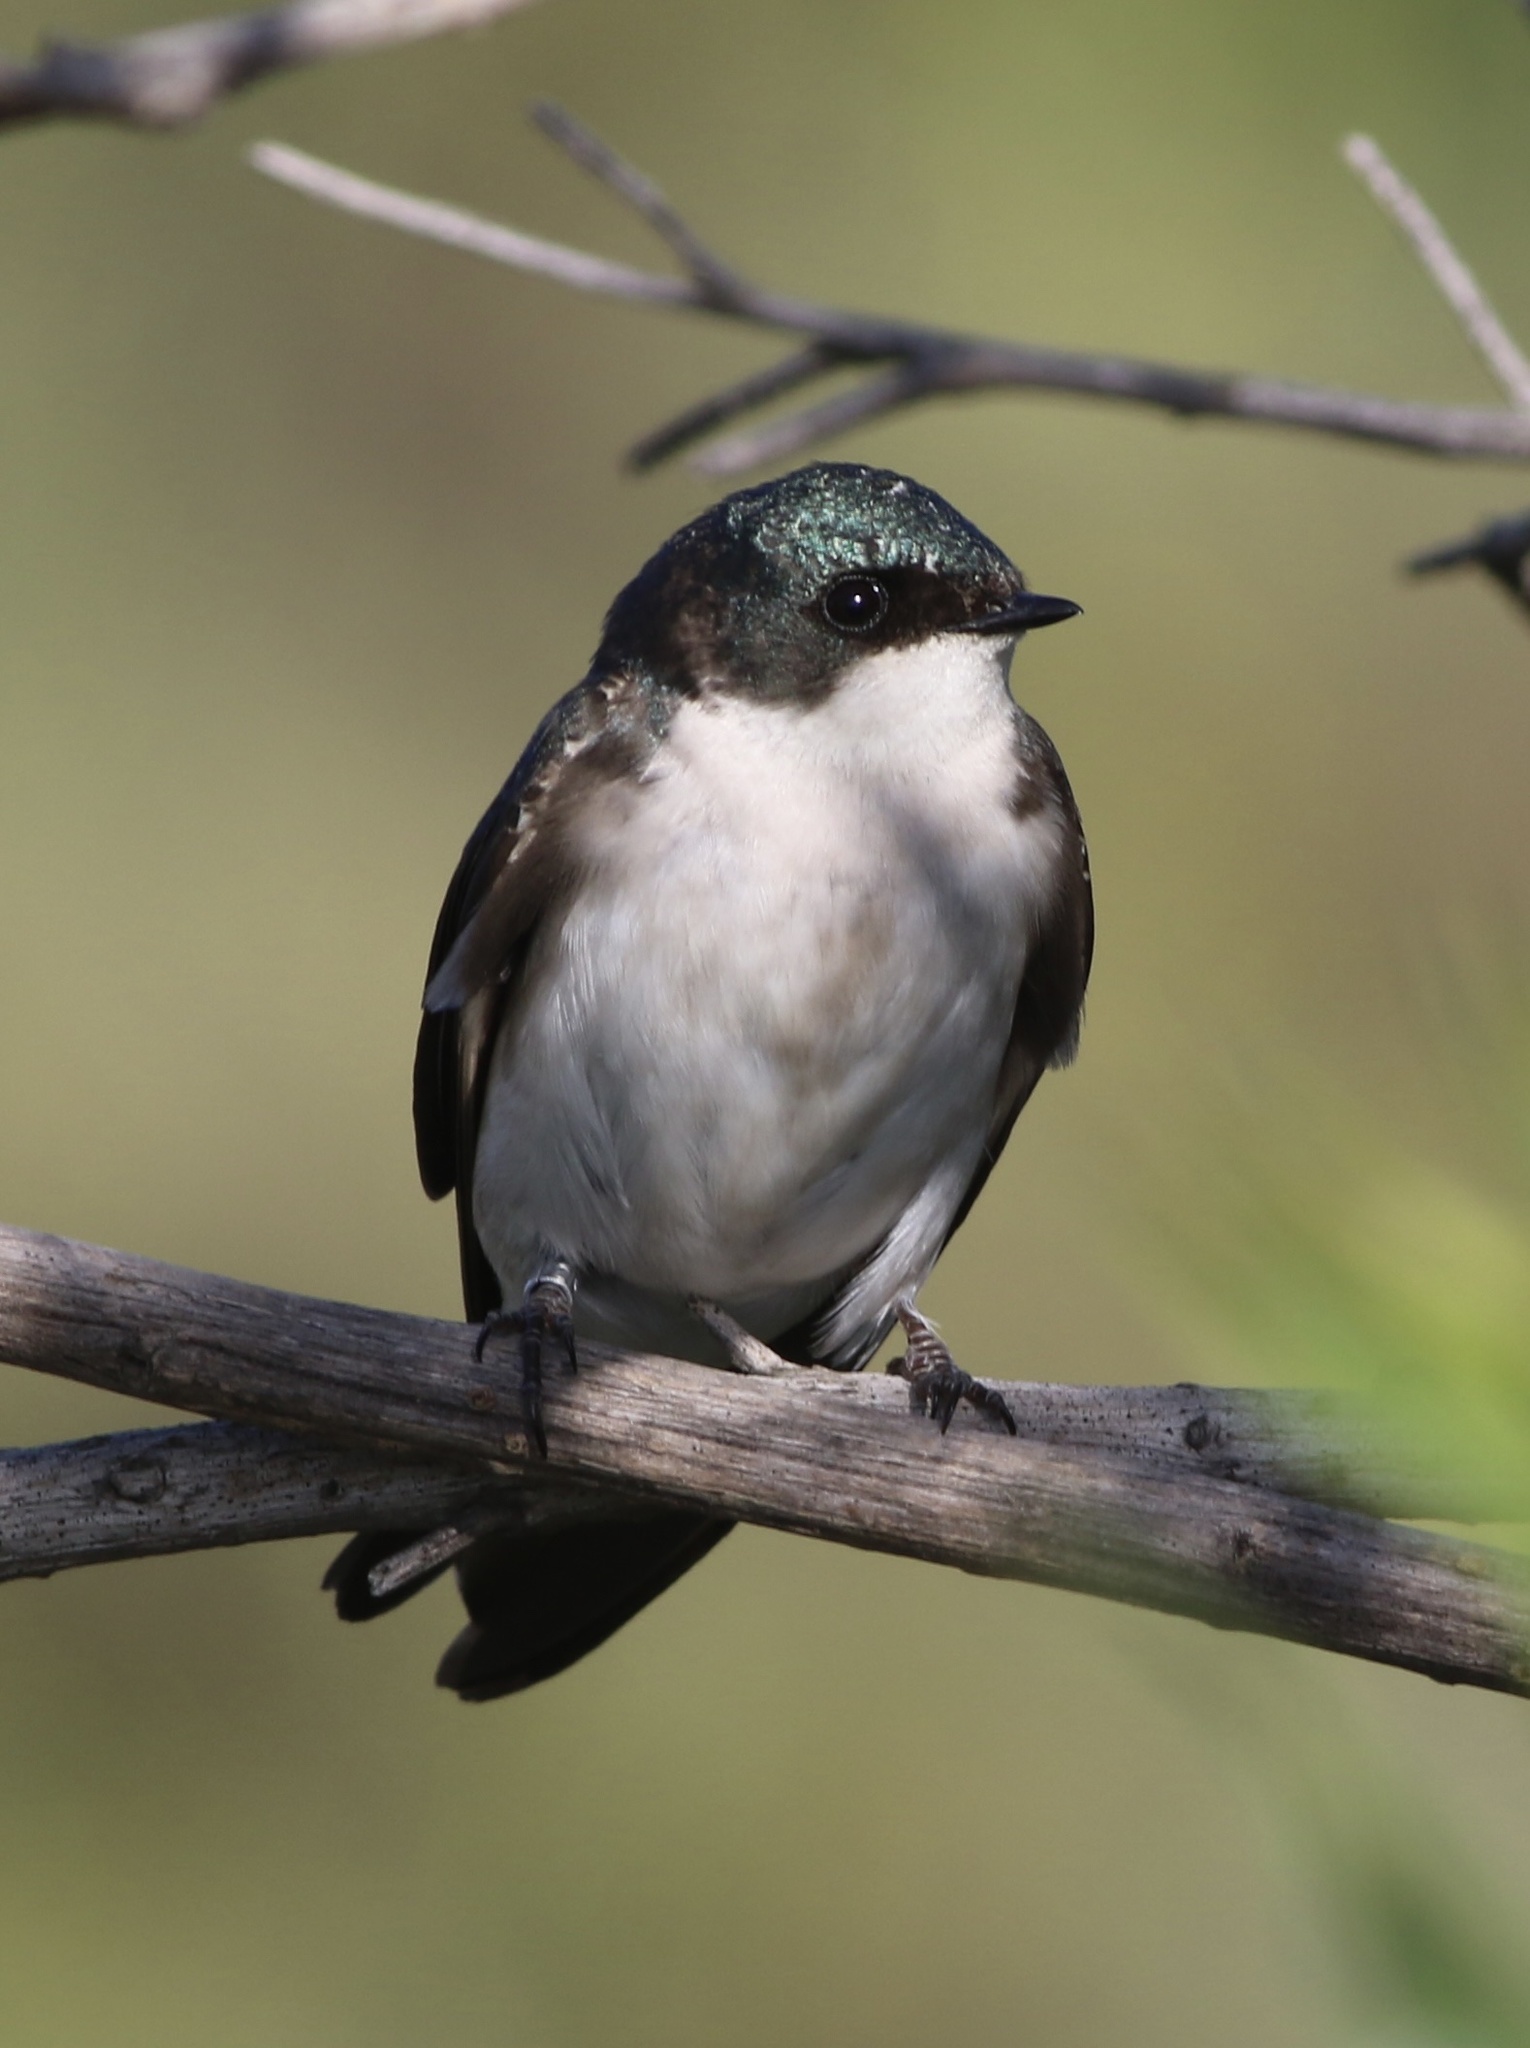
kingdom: Animalia
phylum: Chordata
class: Aves
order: Passeriformes
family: Hirundinidae
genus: Tachycineta
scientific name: Tachycineta bicolor
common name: Tree swallow
